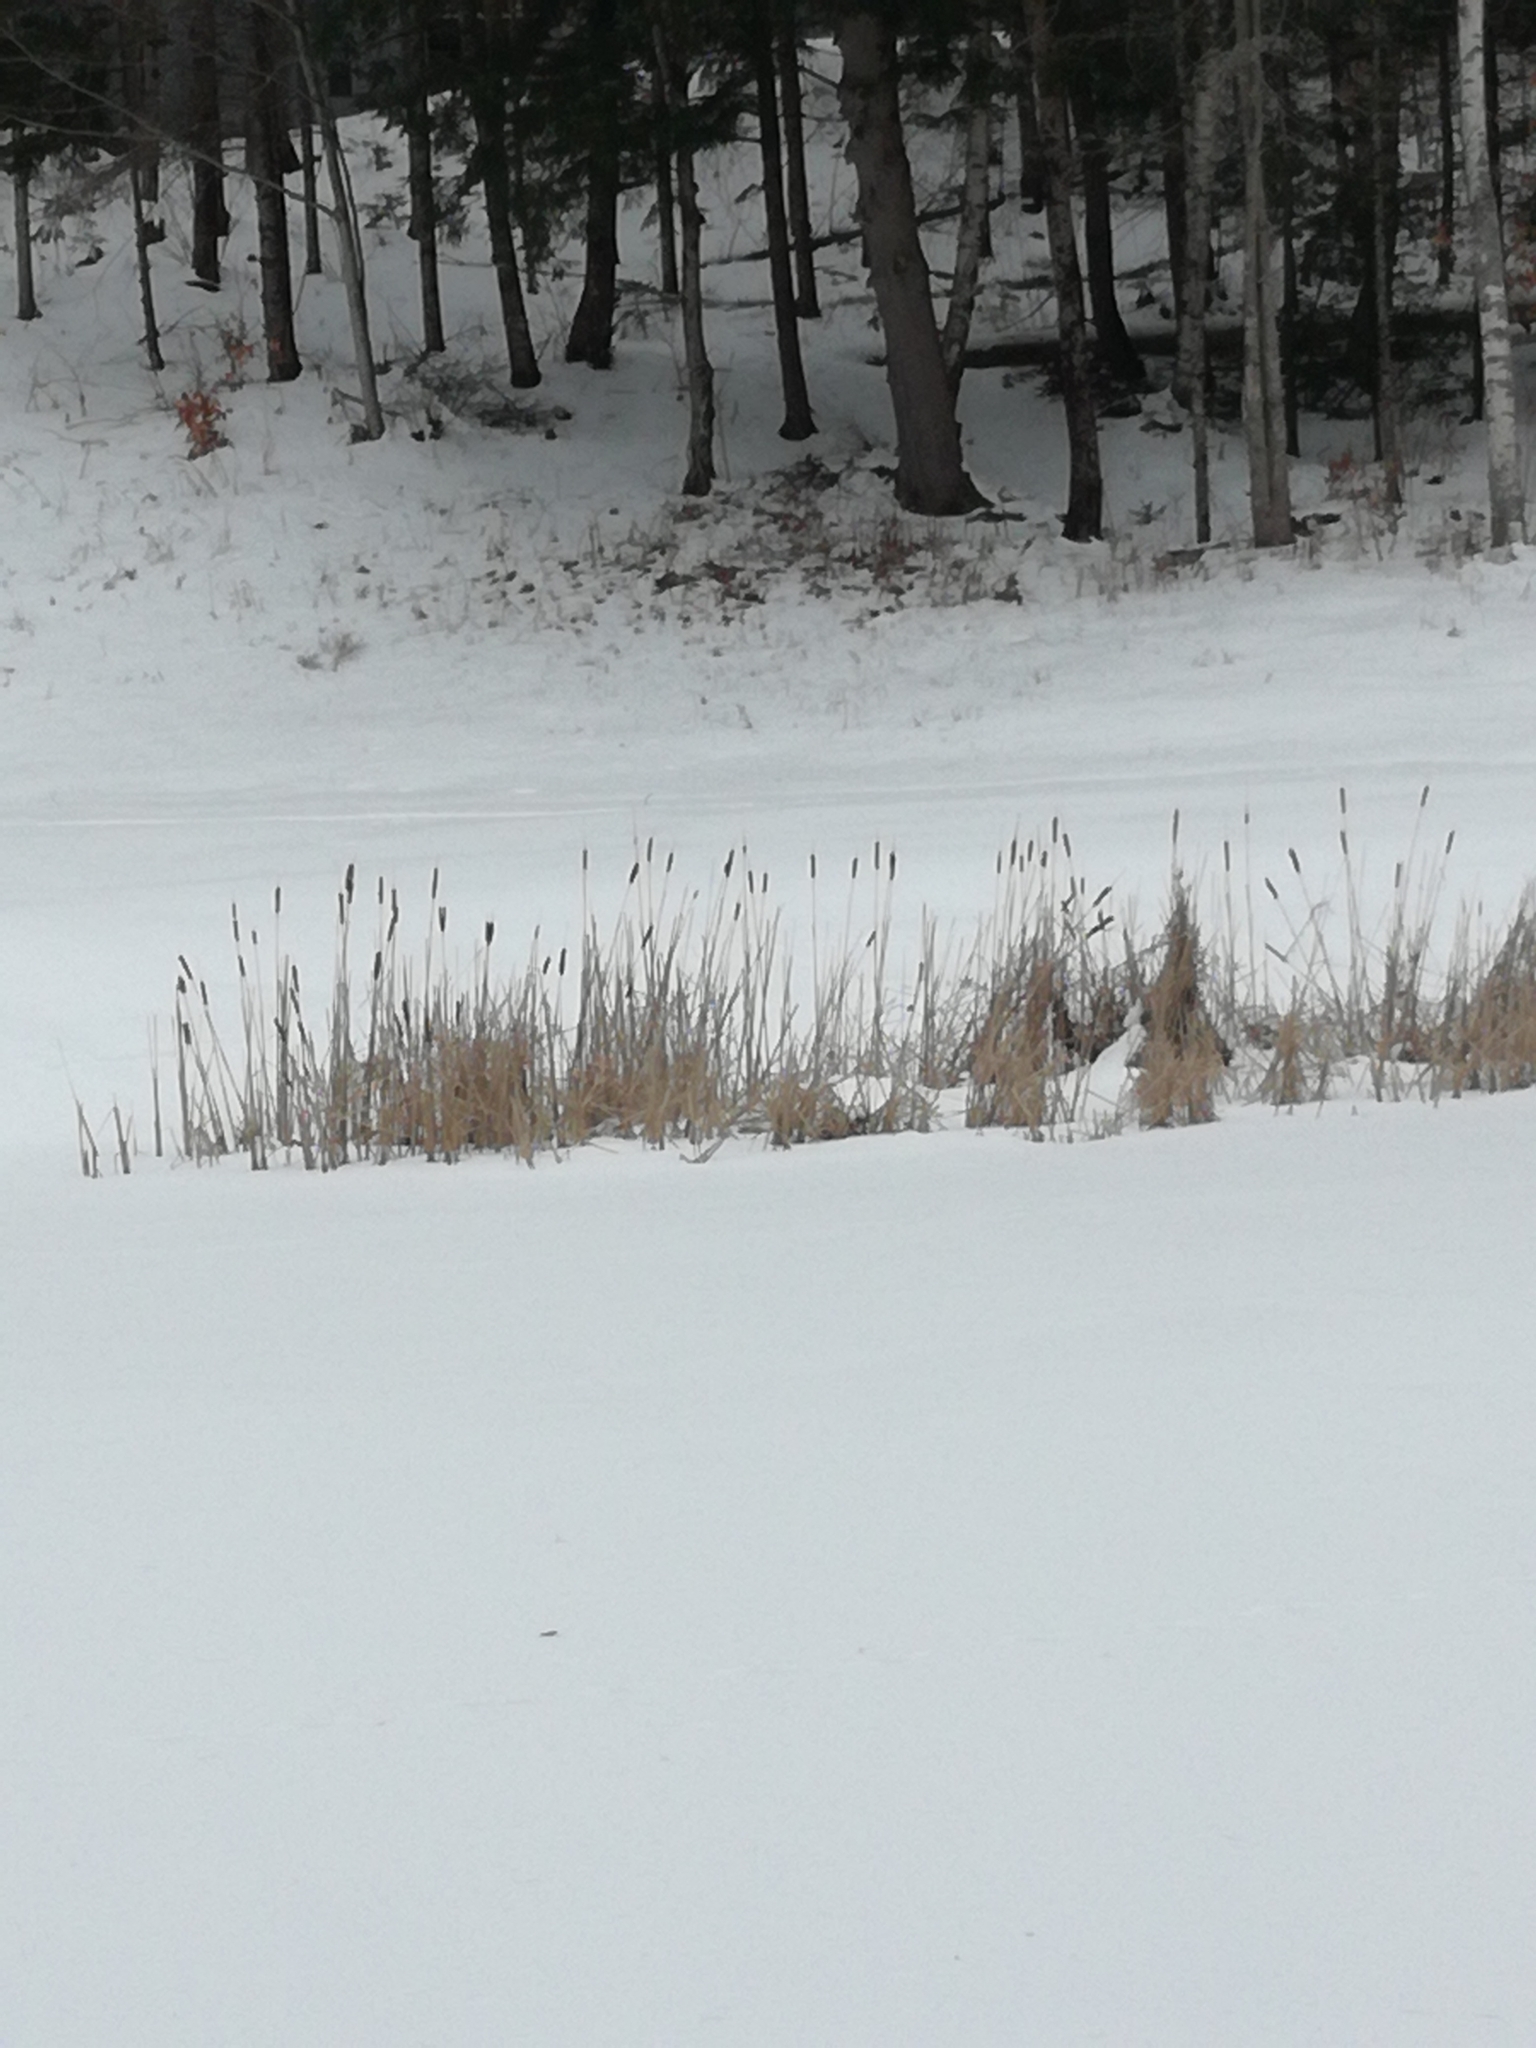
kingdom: Plantae
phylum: Tracheophyta
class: Liliopsida
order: Poales
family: Typhaceae
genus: Typha
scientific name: Typha
